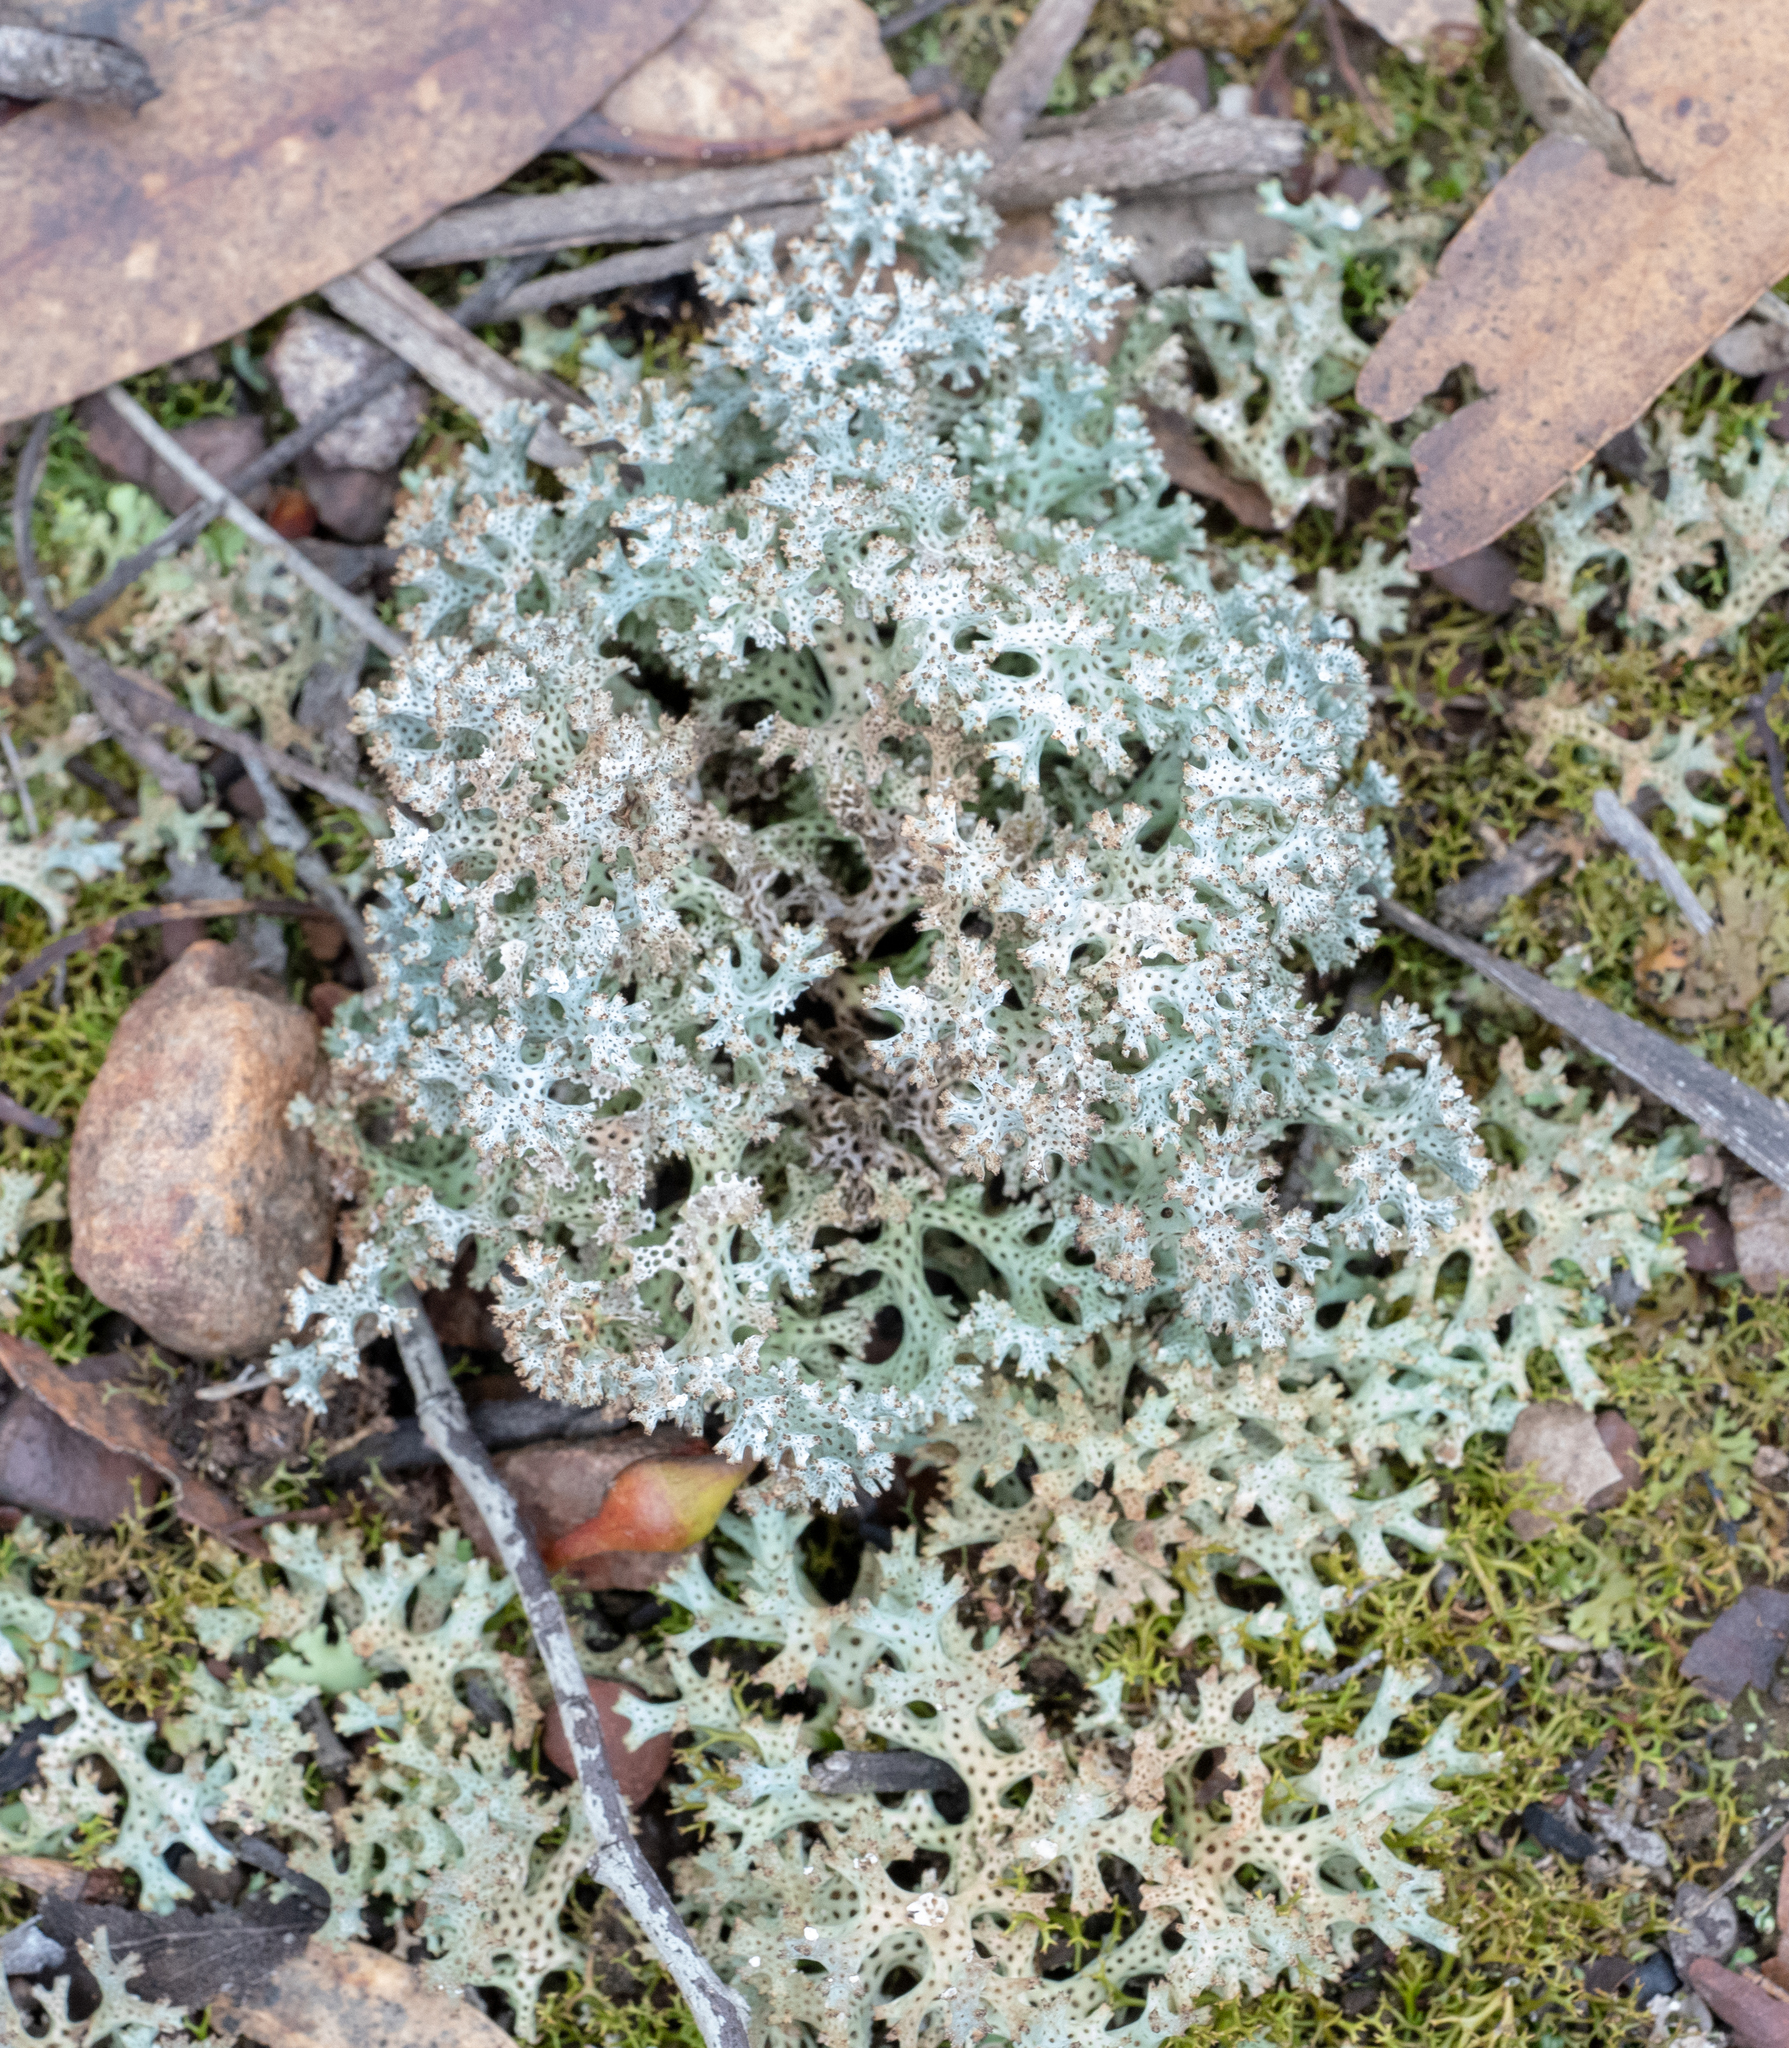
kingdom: Fungi
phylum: Ascomycota
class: Lecanoromycetes
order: Lecanorales
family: Cladoniaceae
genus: Pulchrocladia
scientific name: Pulchrocladia retipora
